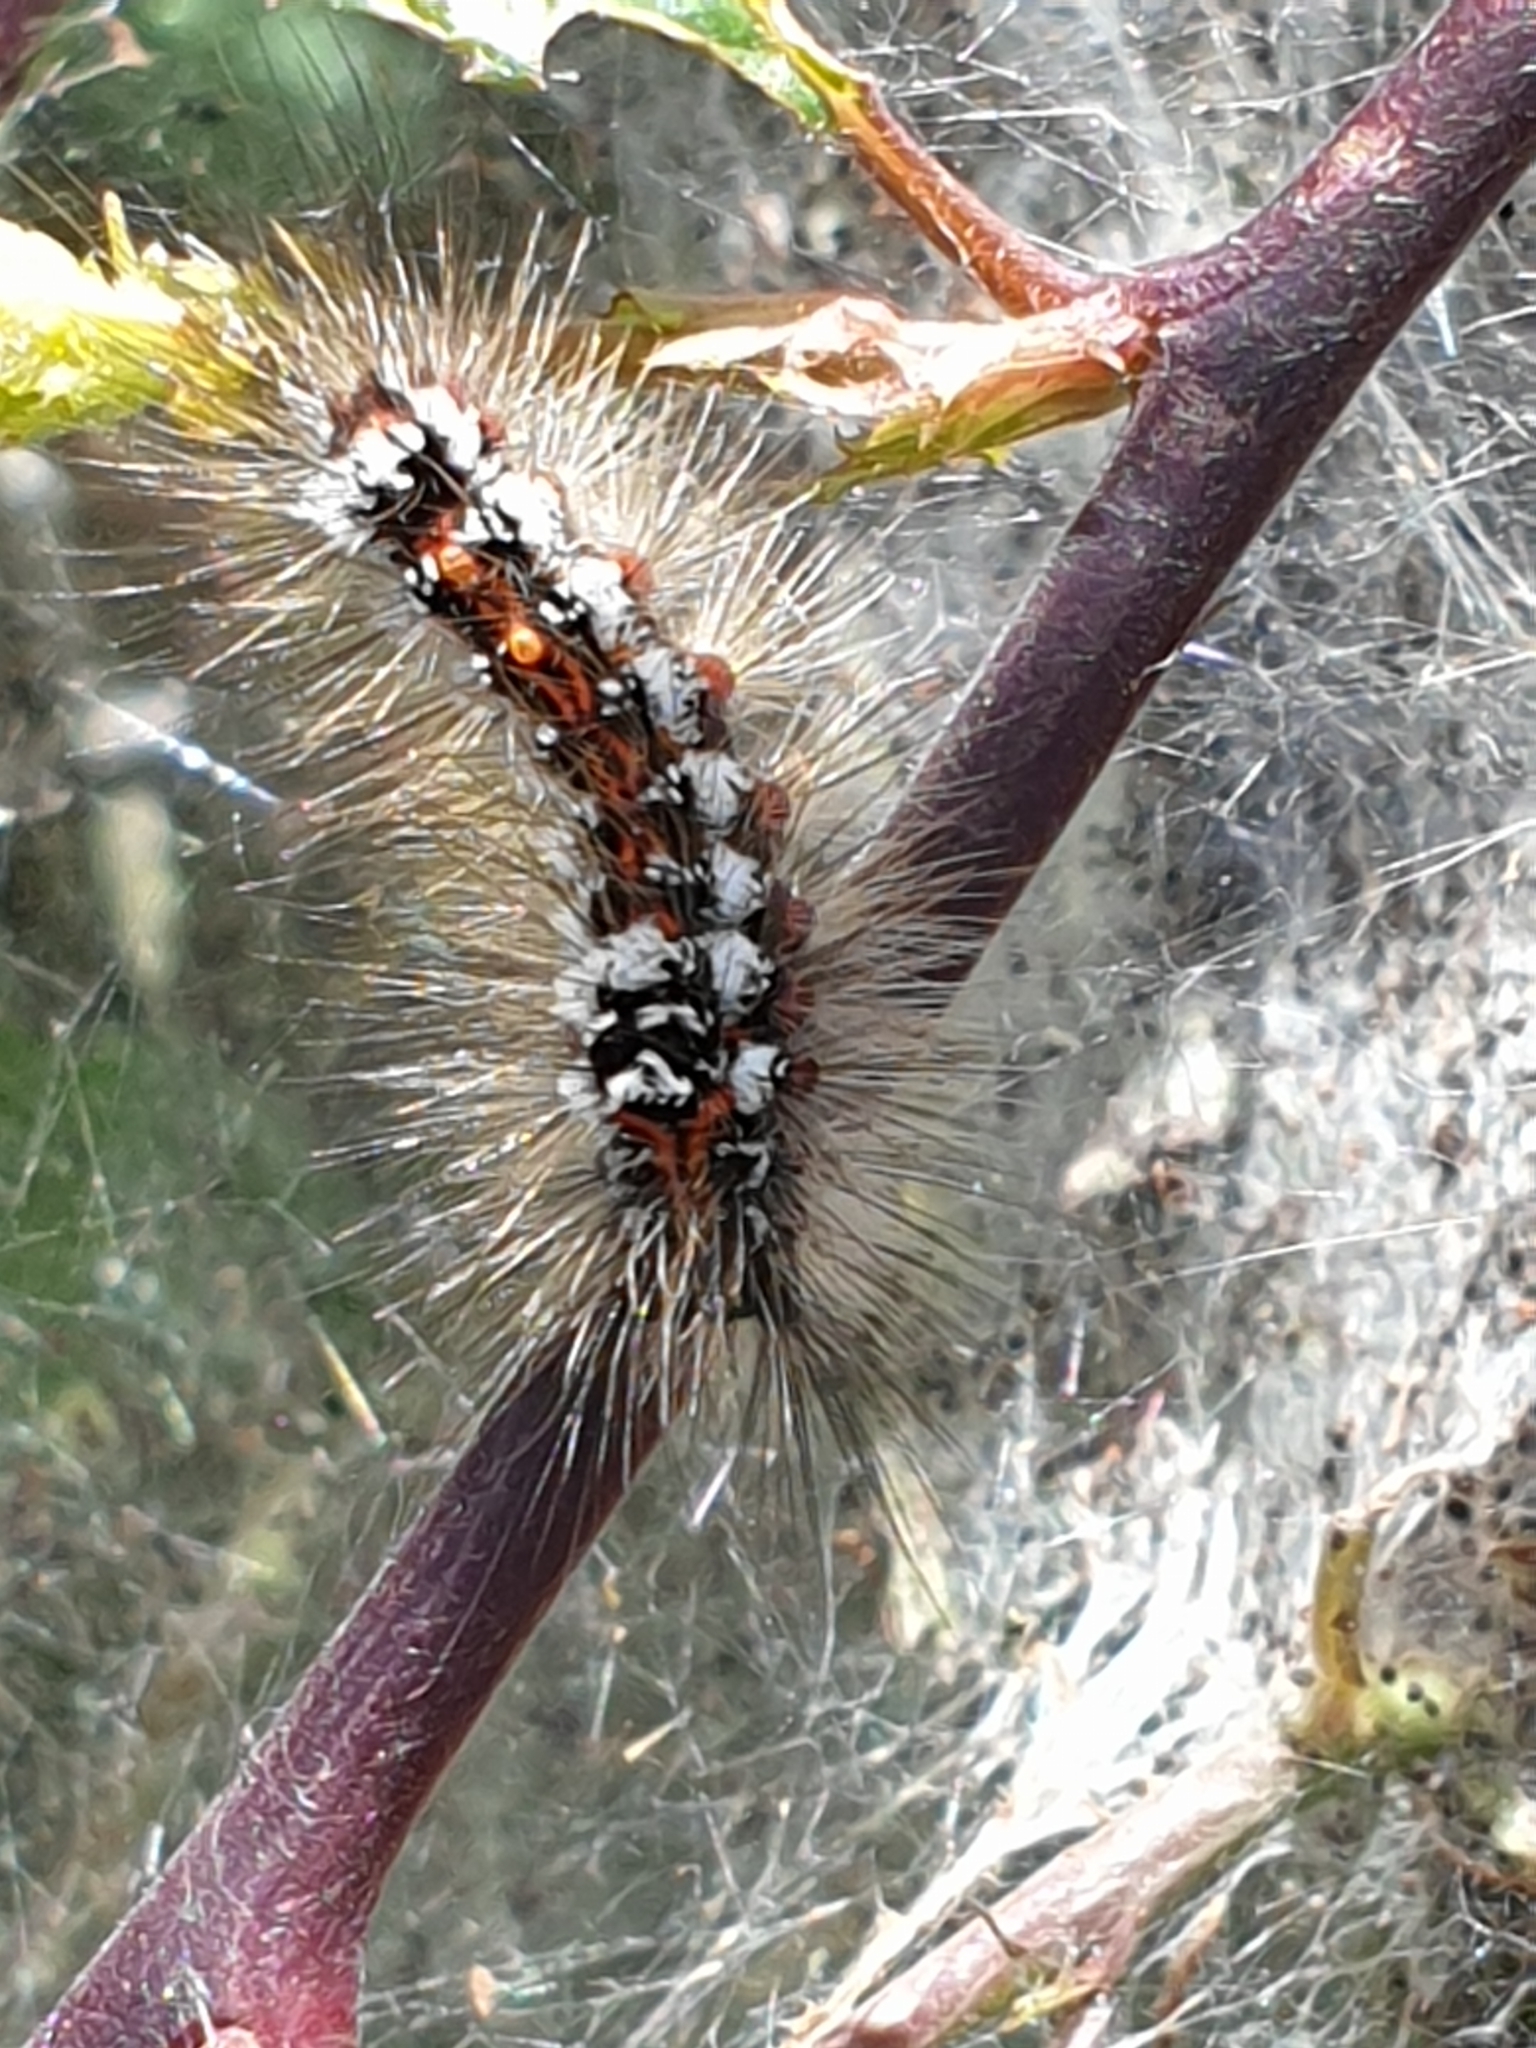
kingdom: Animalia
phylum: Arthropoda
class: Insecta
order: Lepidoptera
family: Erebidae
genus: Sphrageidus
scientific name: Sphrageidus similis
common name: Yellow-tail
